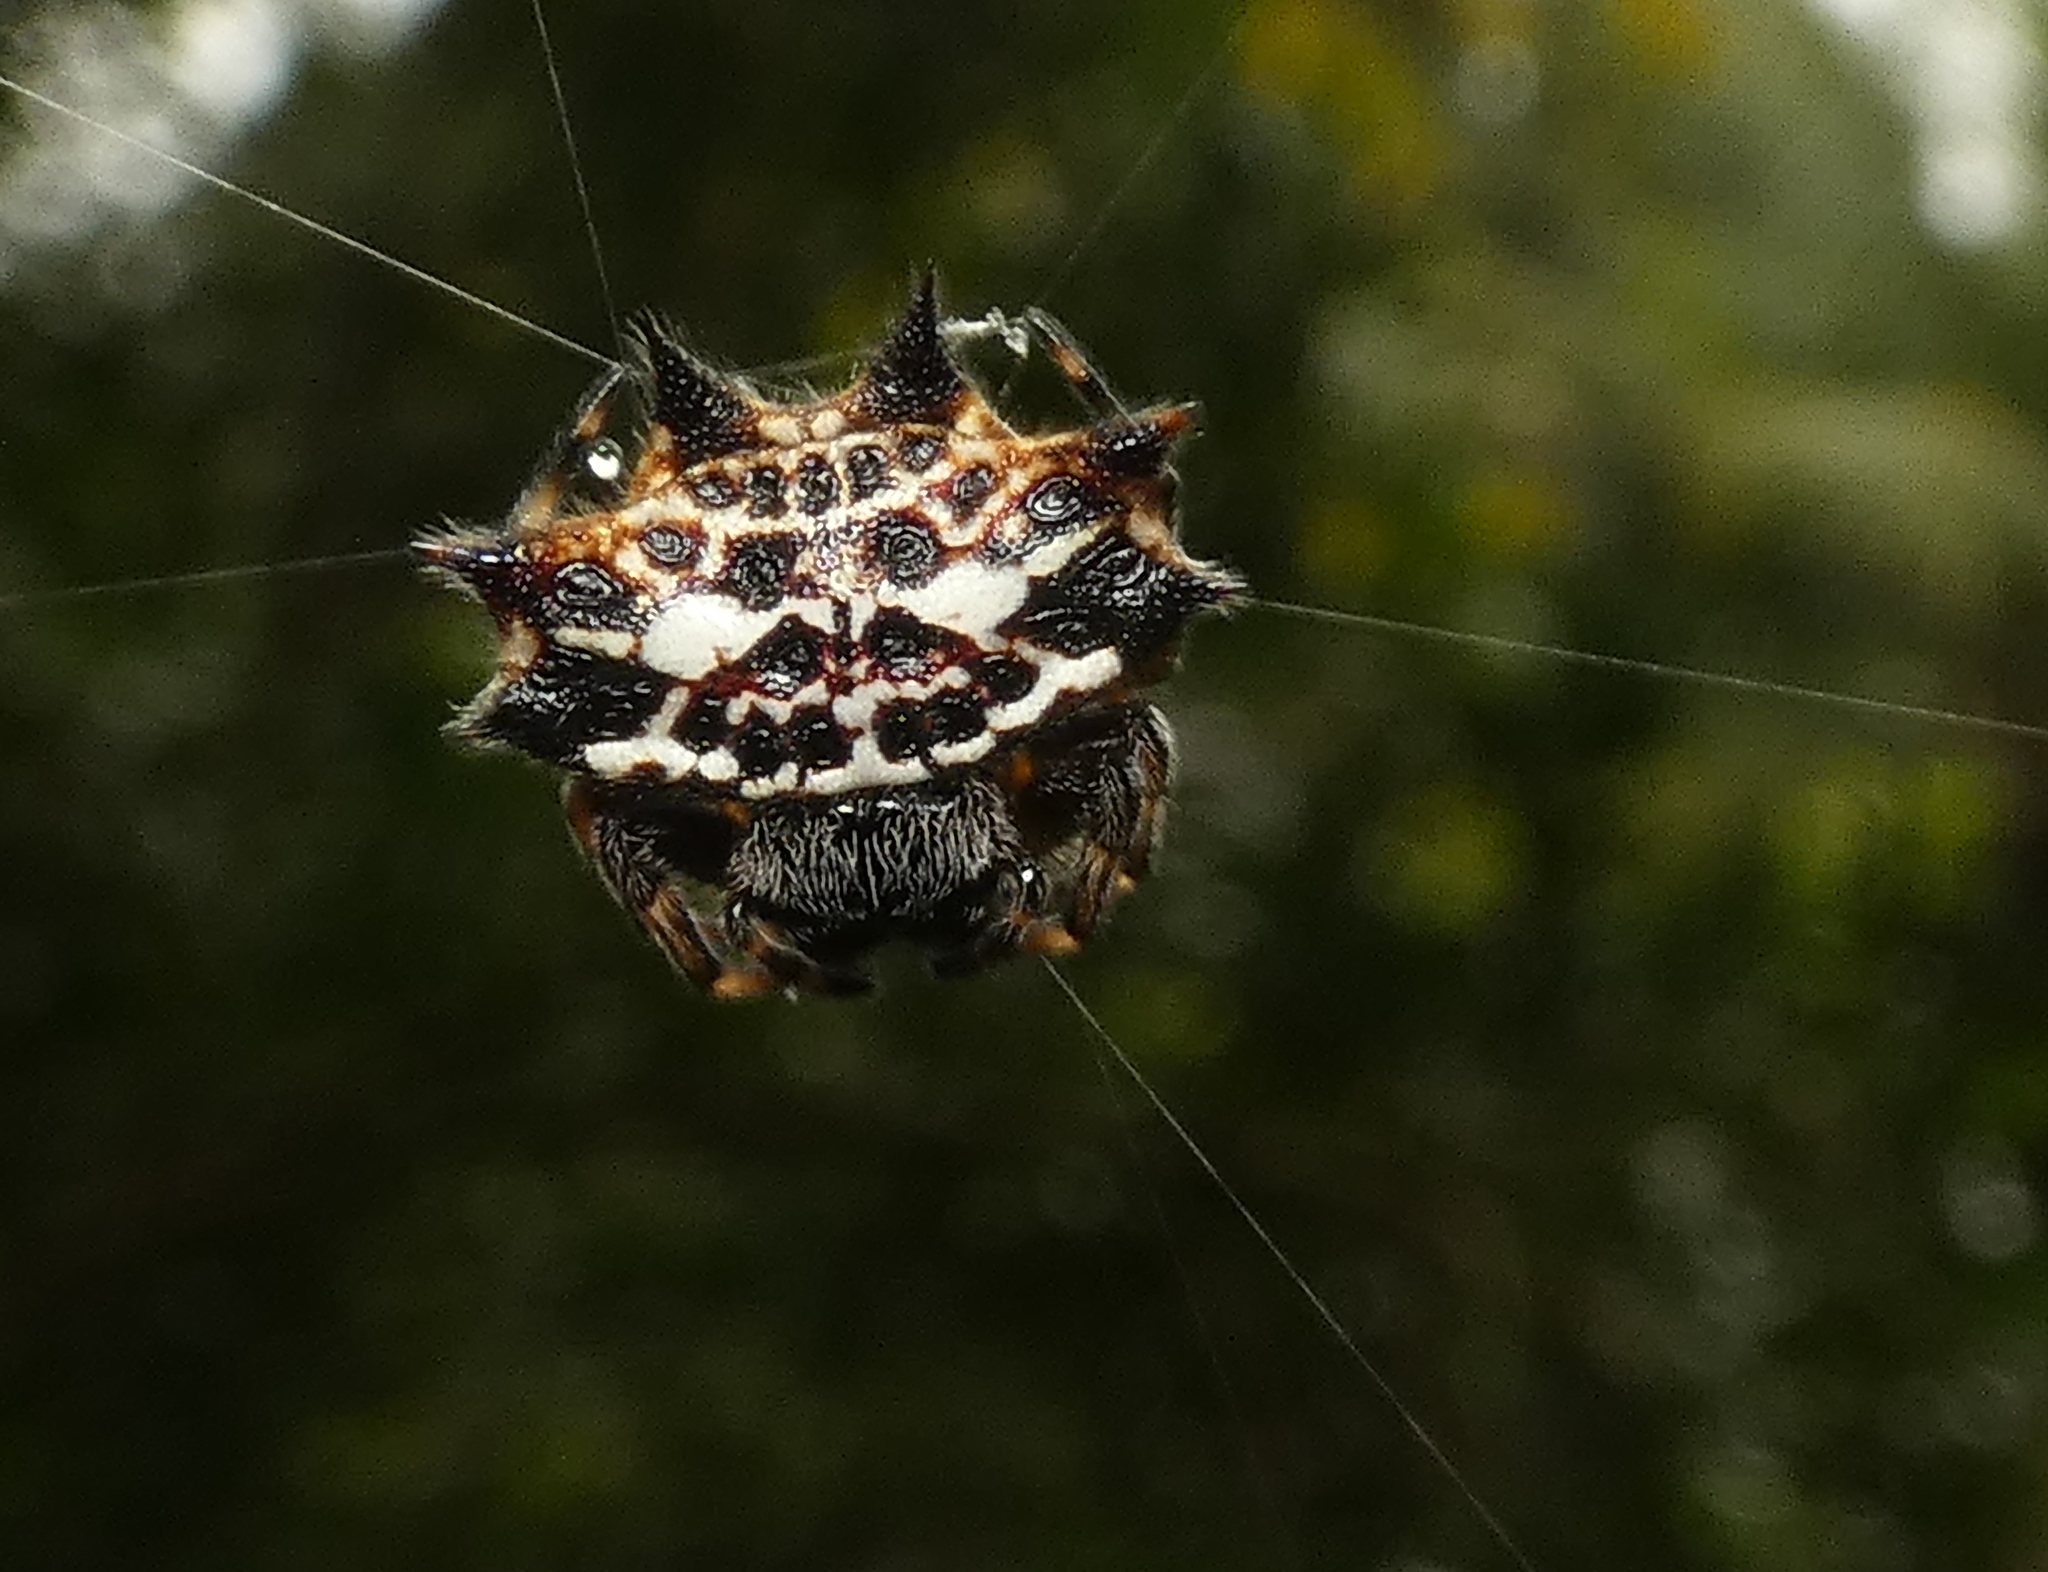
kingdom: Animalia
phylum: Arthropoda
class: Arachnida
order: Araneae
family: Araneidae
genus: Gasteracantha
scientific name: Gasteracantha cancriformis
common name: Orb weavers
